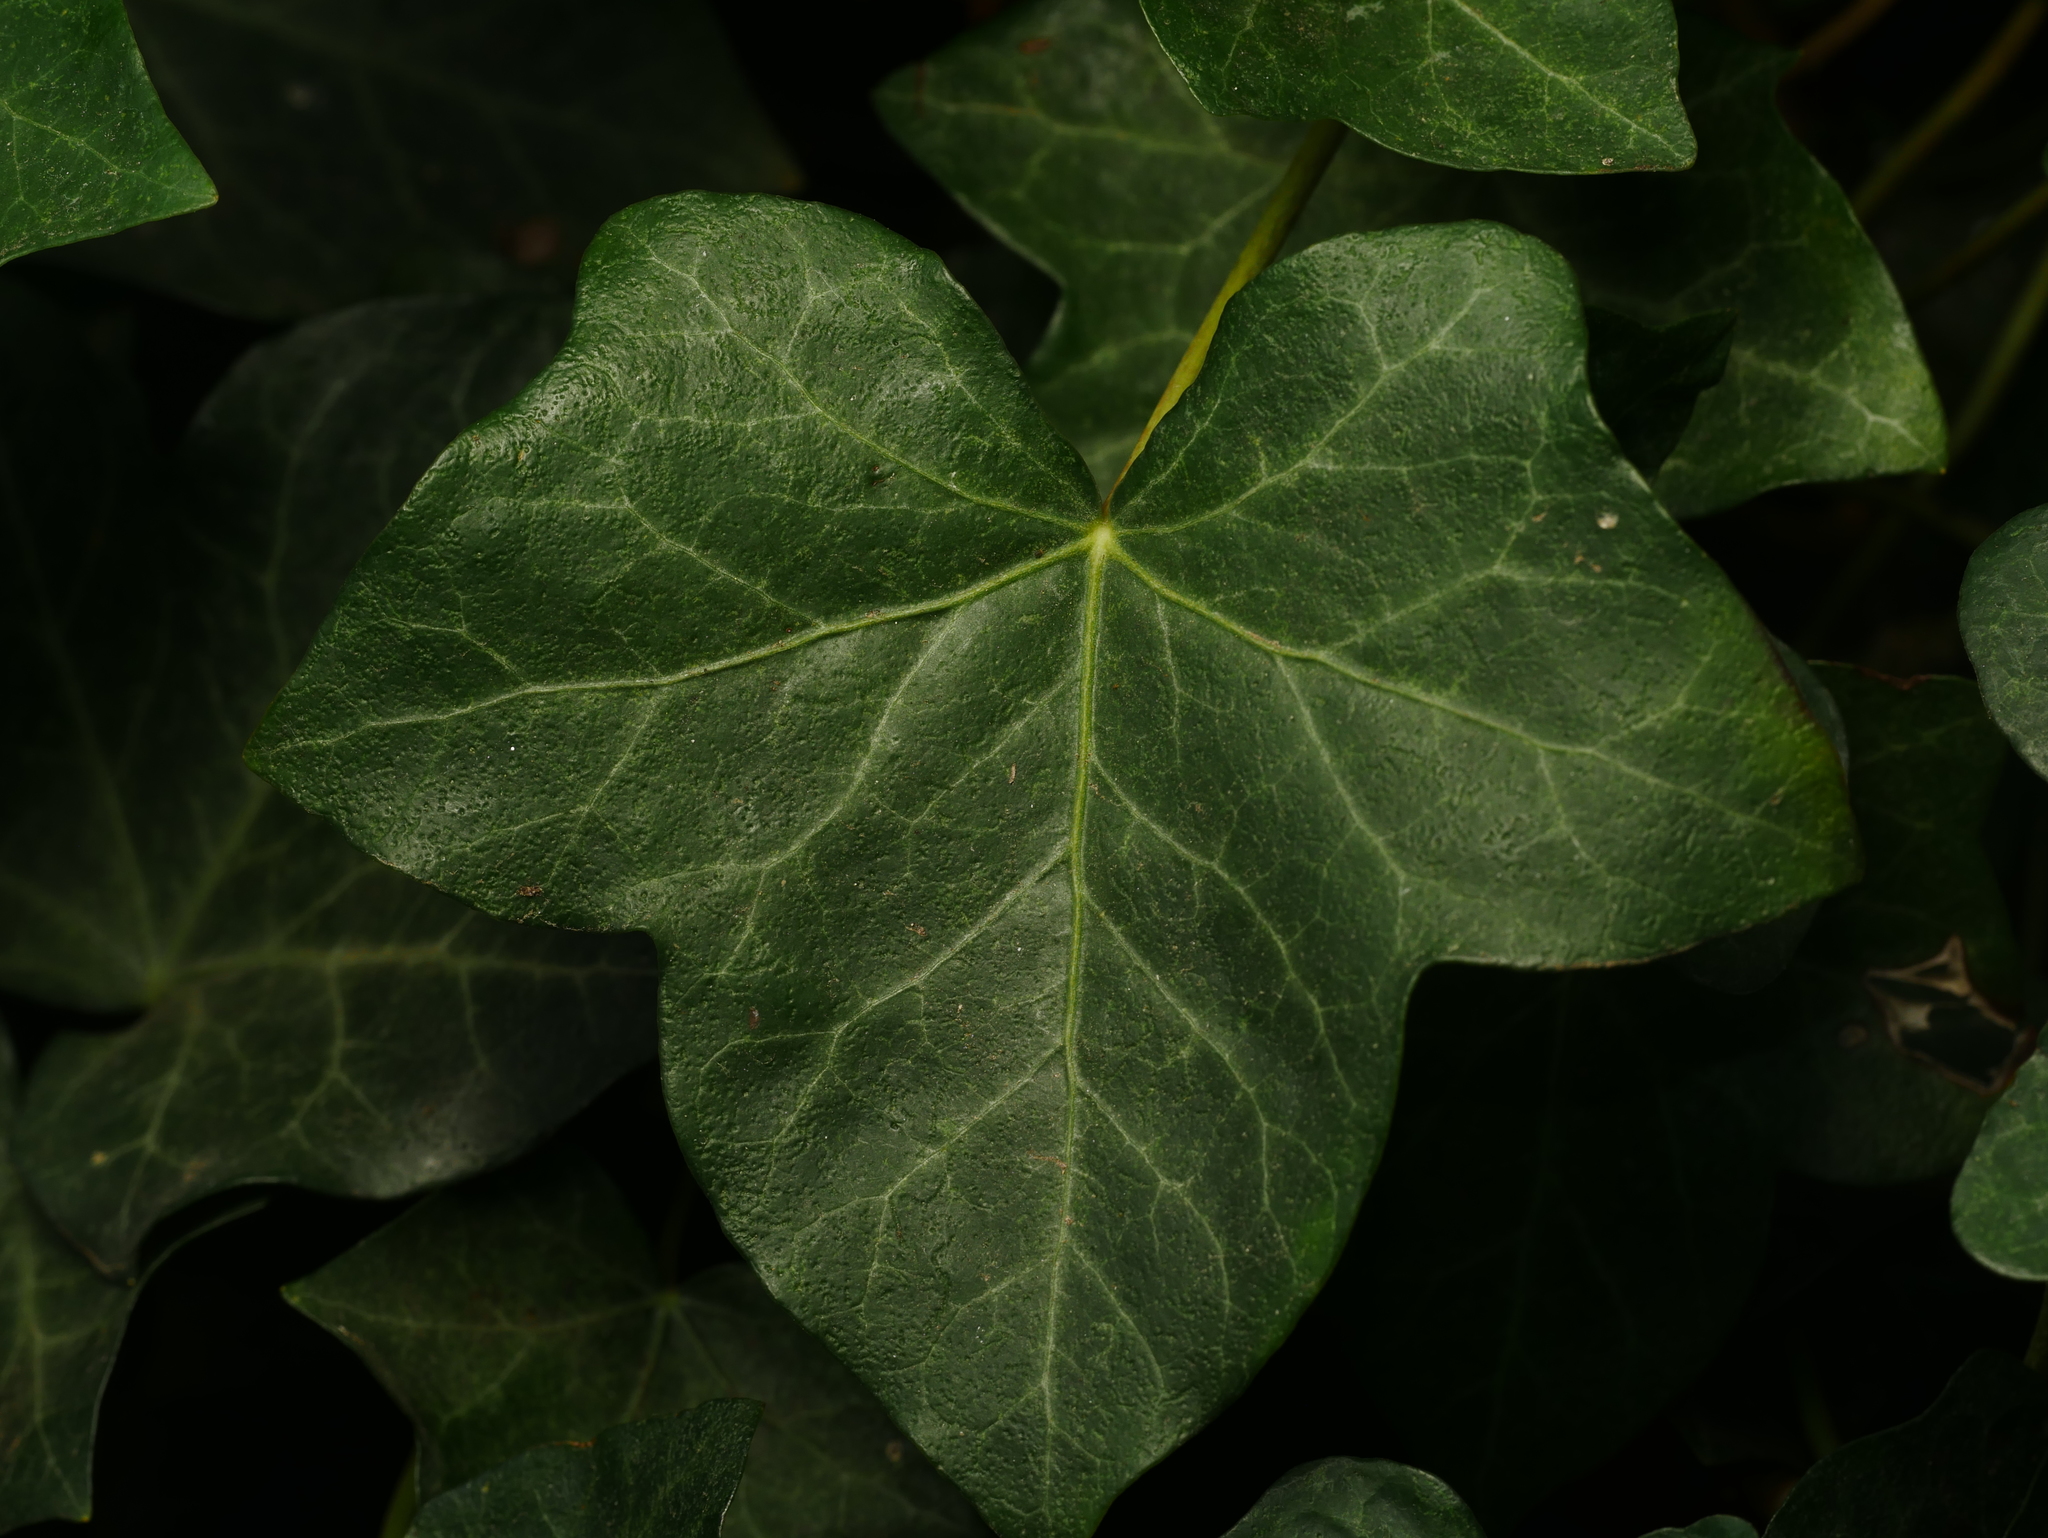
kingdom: Plantae
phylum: Tracheophyta
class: Magnoliopsida
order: Apiales
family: Araliaceae
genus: Hedera
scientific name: Hedera helix
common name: Ivy
